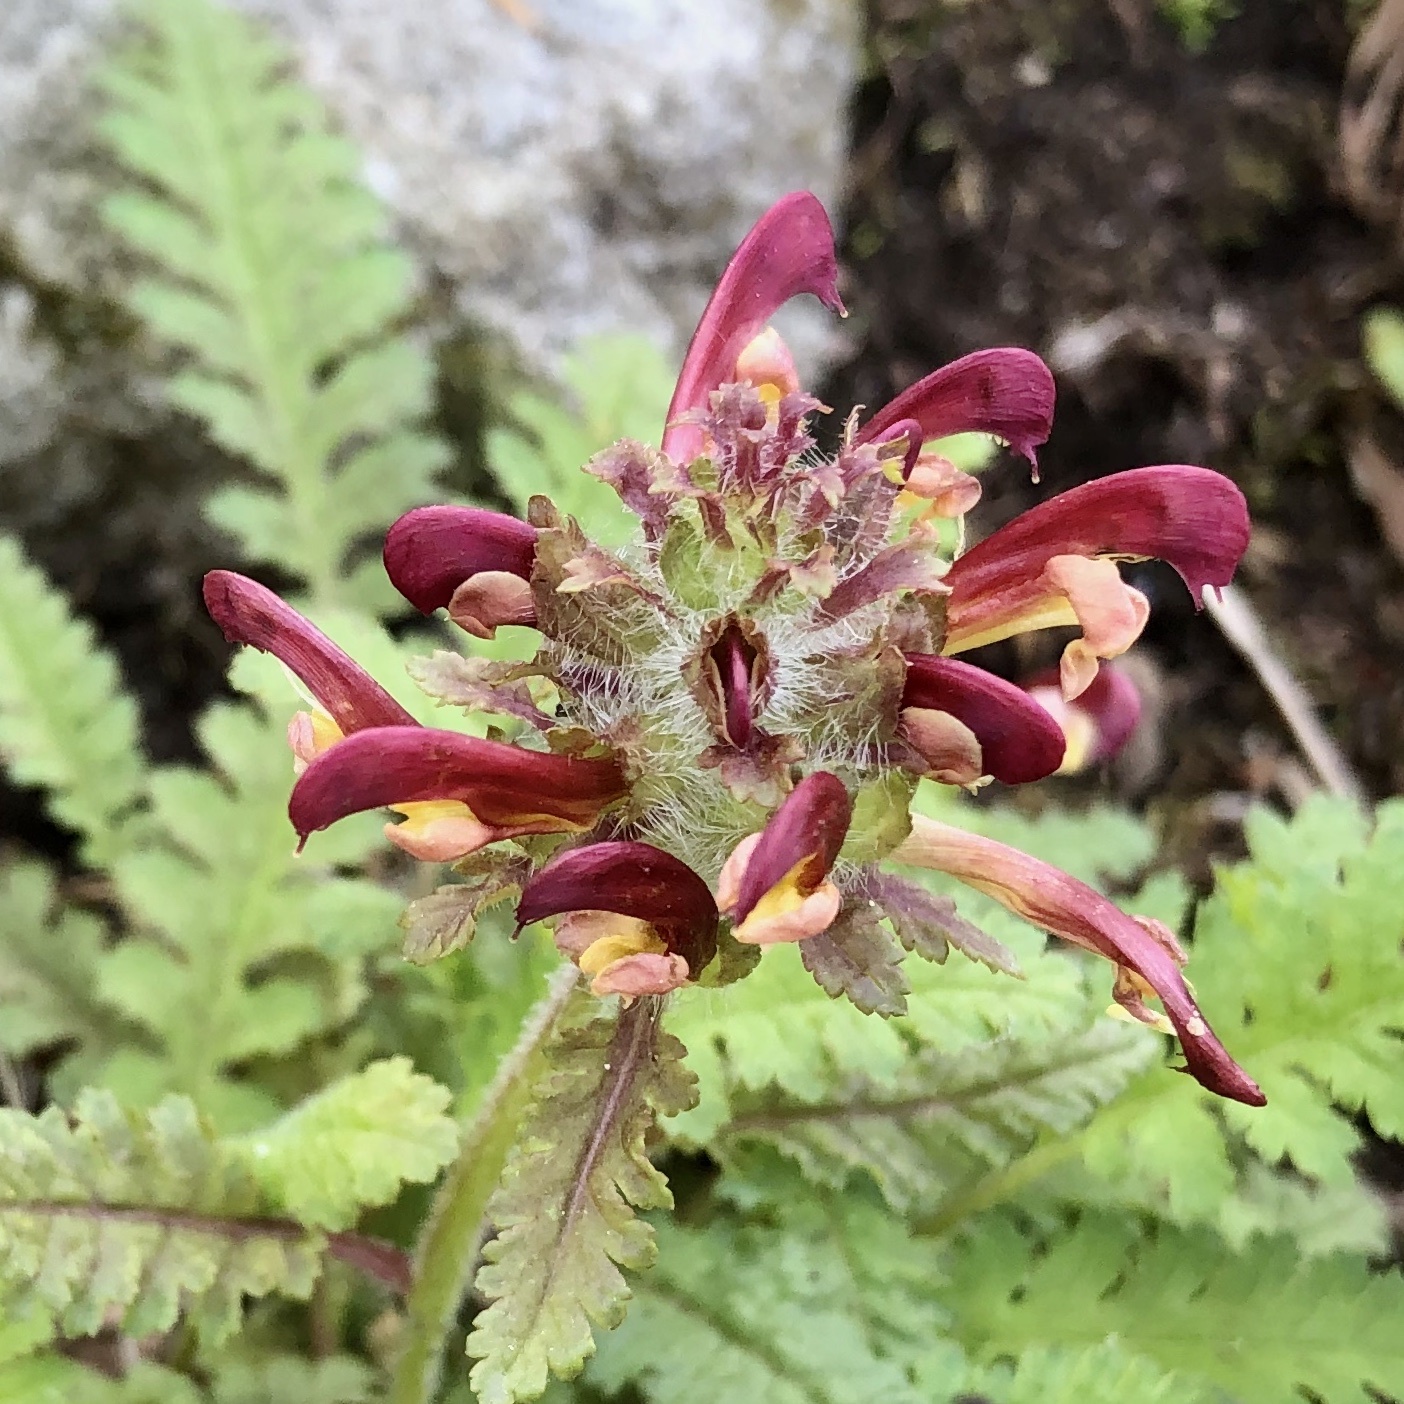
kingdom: Plantae
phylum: Tracheophyta
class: Magnoliopsida
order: Lamiales
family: Orobanchaceae
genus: Pedicularis
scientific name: Pedicularis canadensis
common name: Early lousewort
